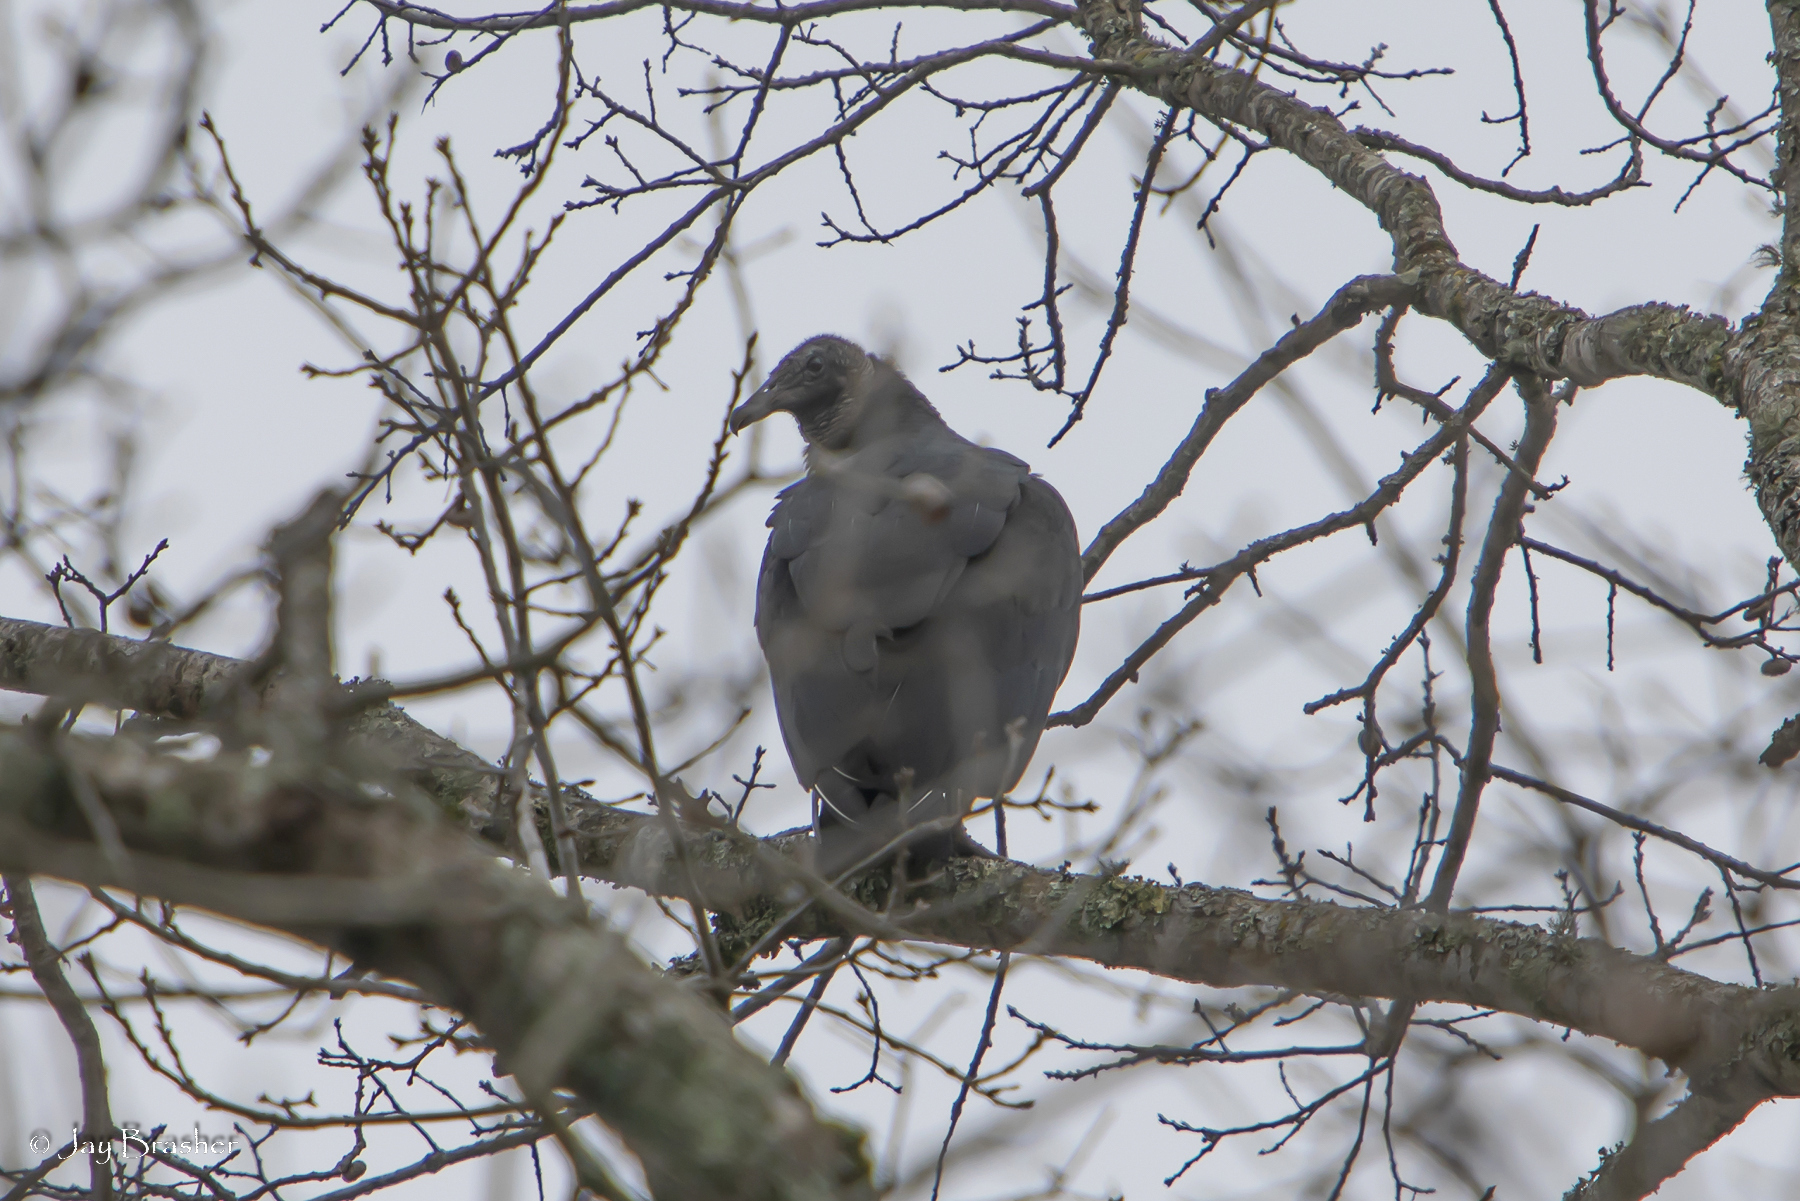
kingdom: Animalia
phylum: Chordata
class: Aves
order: Accipitriformes
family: Cathartidae
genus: Coragyps
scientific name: Coragyps atratus
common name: Black vulture
